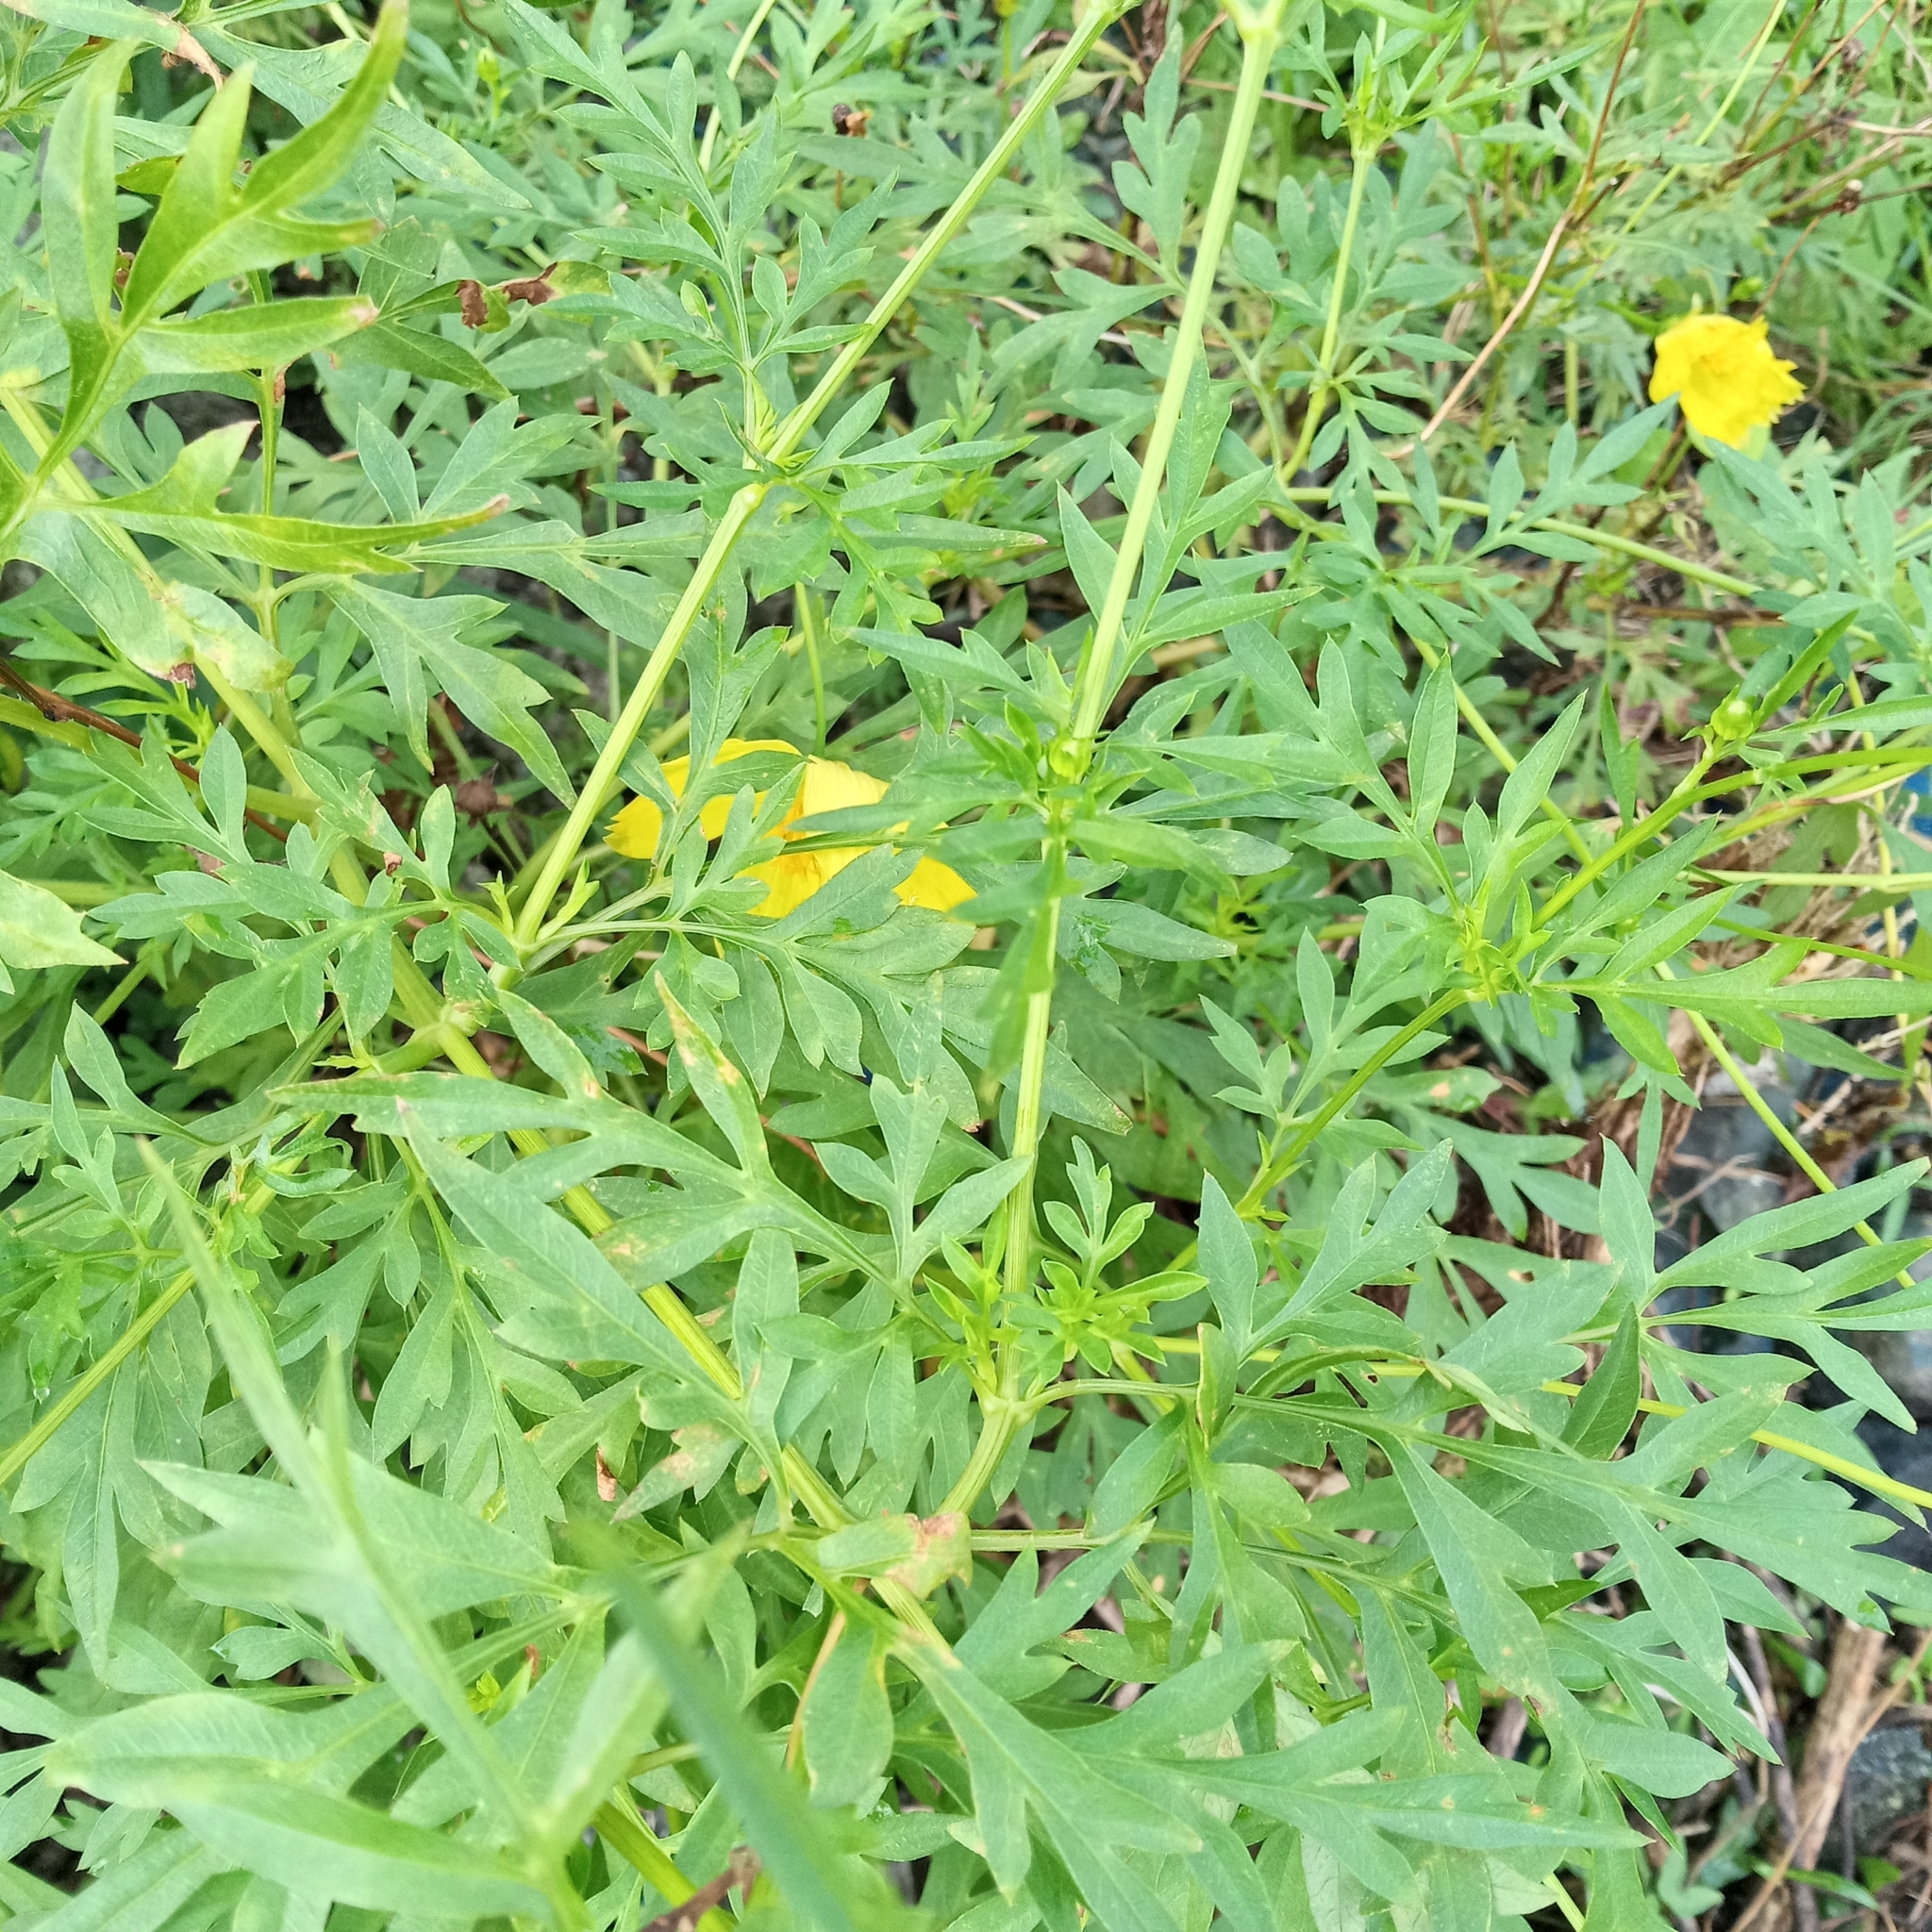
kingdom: Plantae
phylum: Tracheophyta
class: Magnoliopsida
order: Asterales
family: Asteraceae
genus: Cosmos
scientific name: Cosmos sulphureus
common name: Sulphur cosmos
